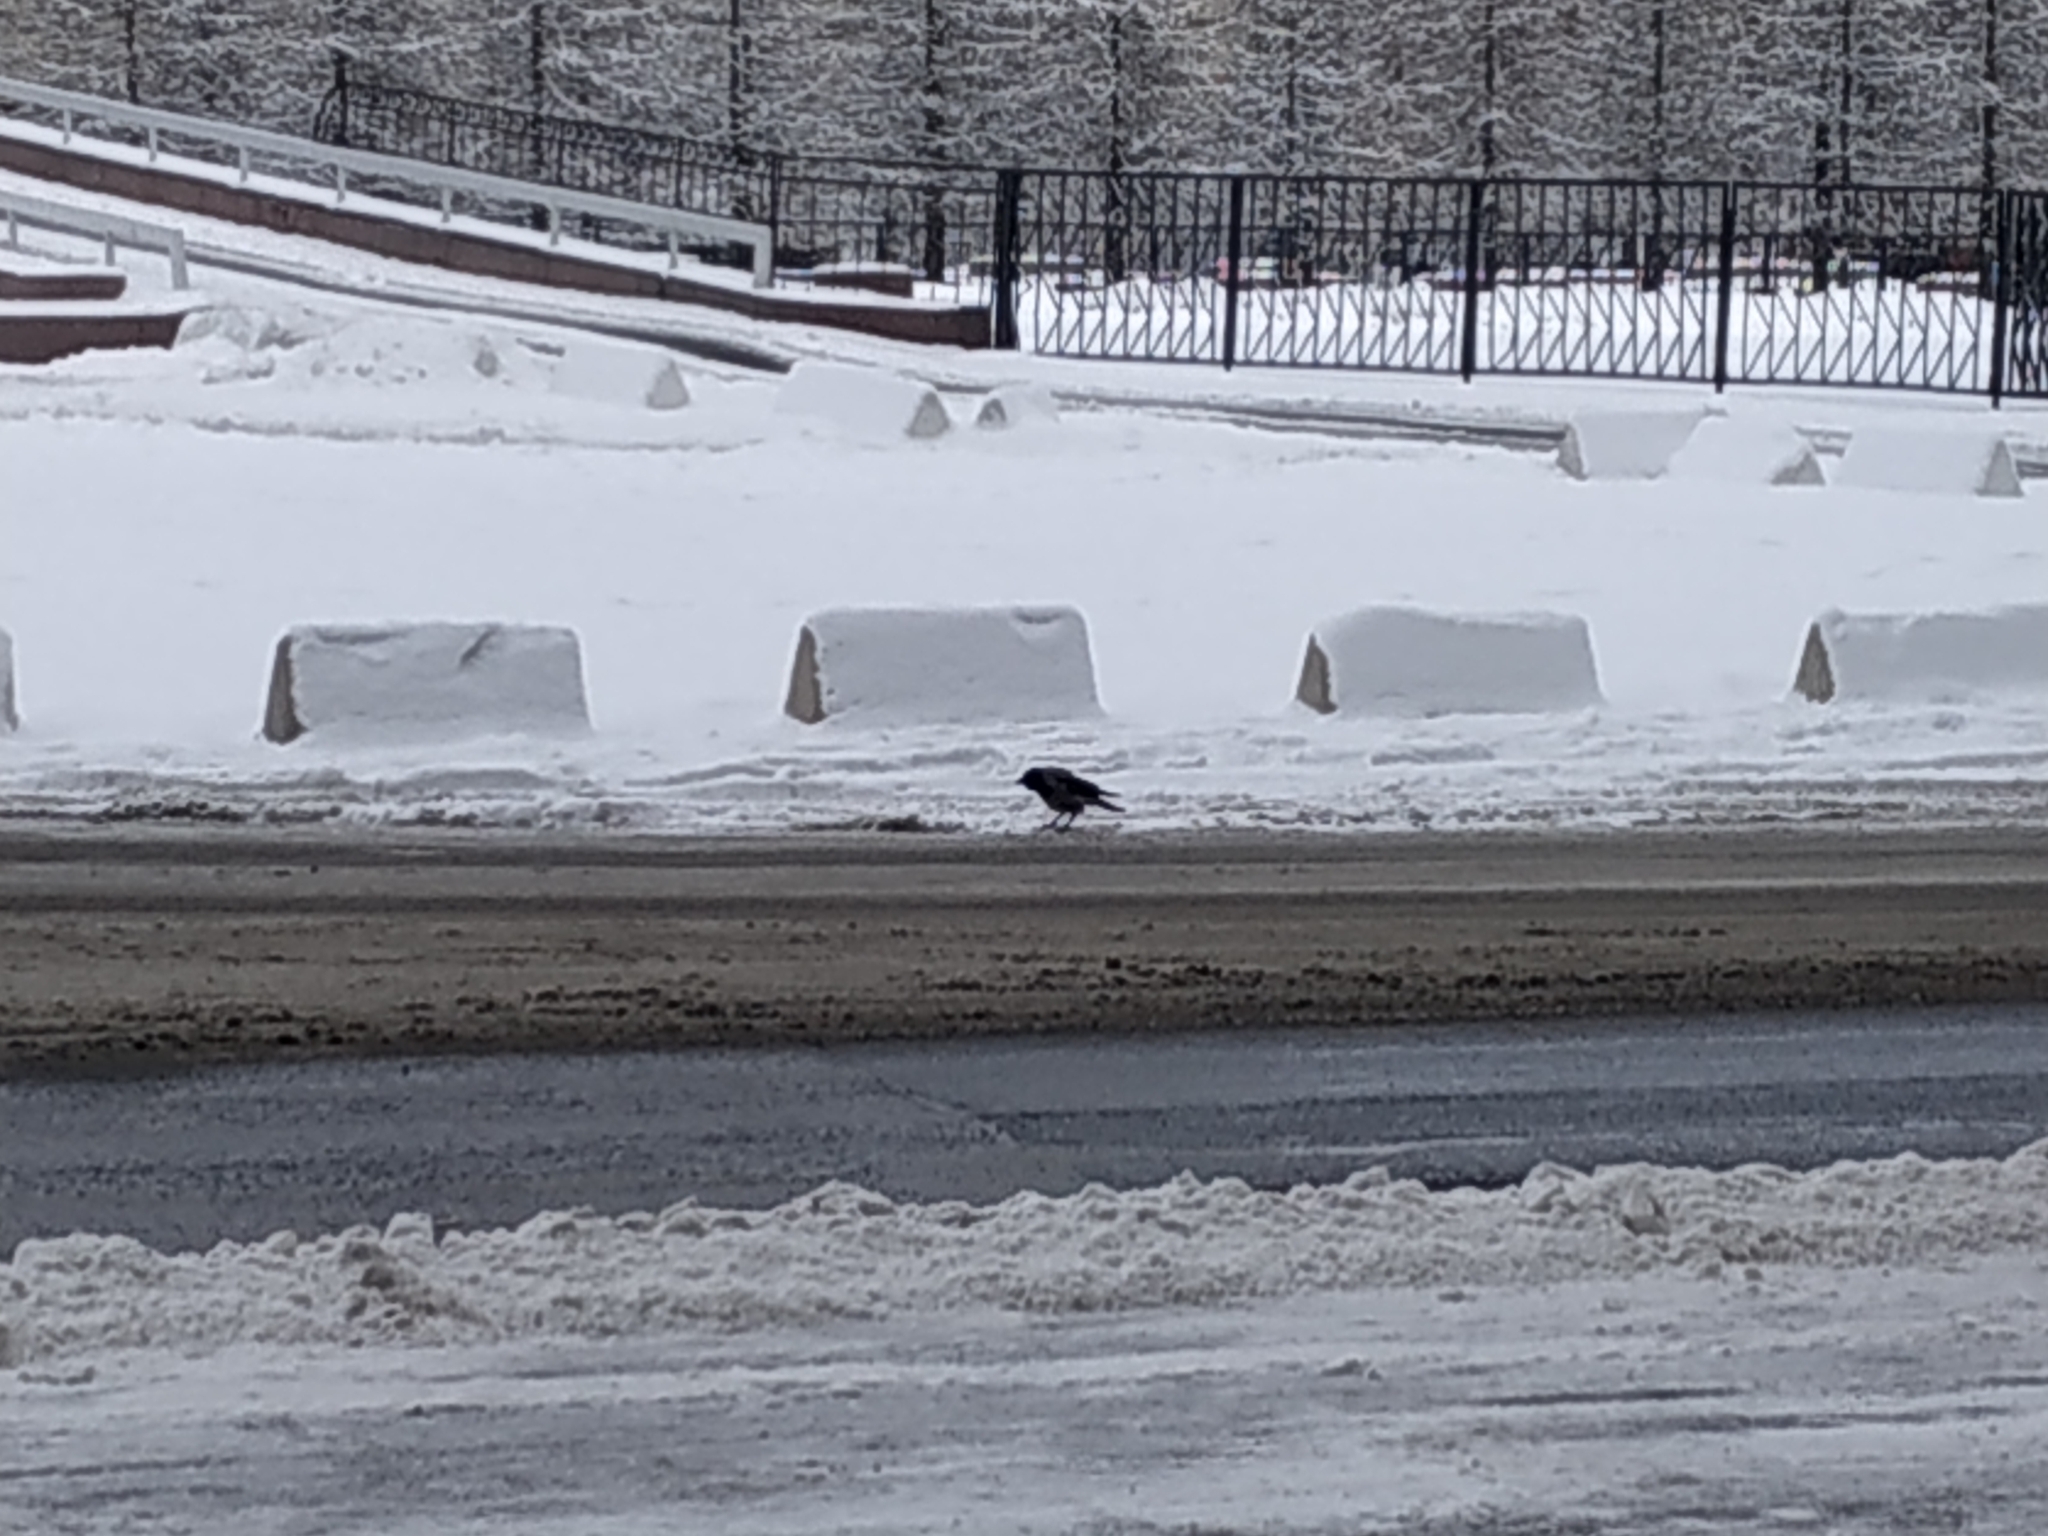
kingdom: Animalia
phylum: Chordata
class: Aves
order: Passeriformes
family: Corvidae
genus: Corvus
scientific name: Corvus cornix
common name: Hooded crow
